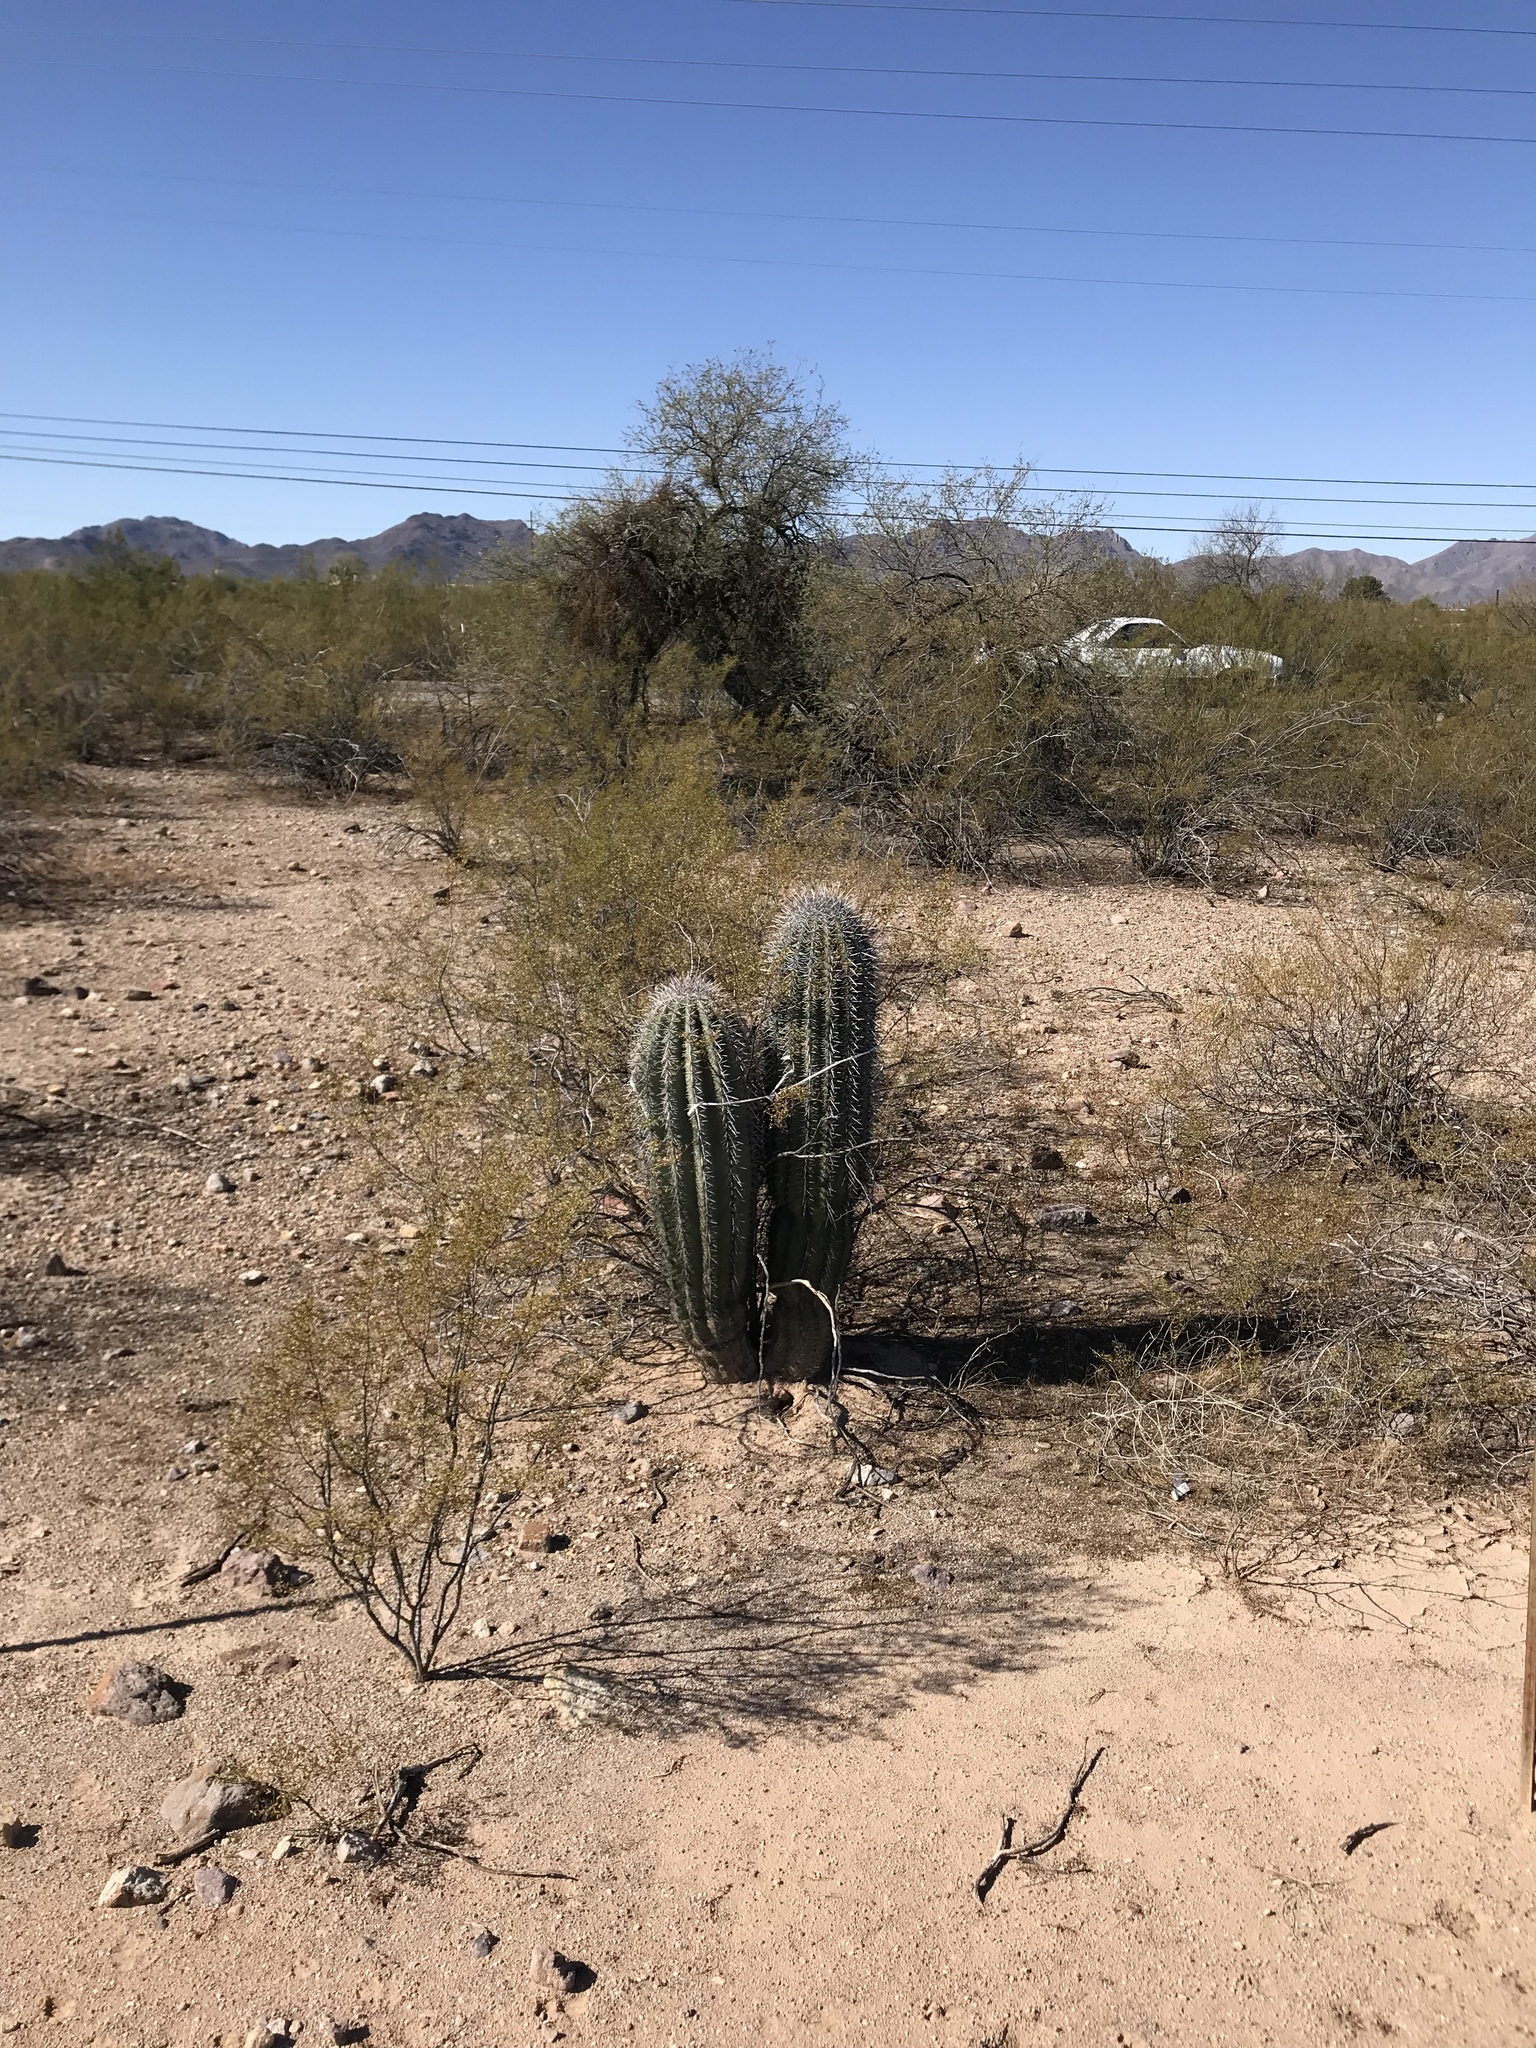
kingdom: Plantae
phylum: Tracheophyta
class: Magnoliopsida
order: Caryophyllales
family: Cactaceae
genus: Carnegiea
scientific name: Carnegiea gigantea
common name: Saguaro
